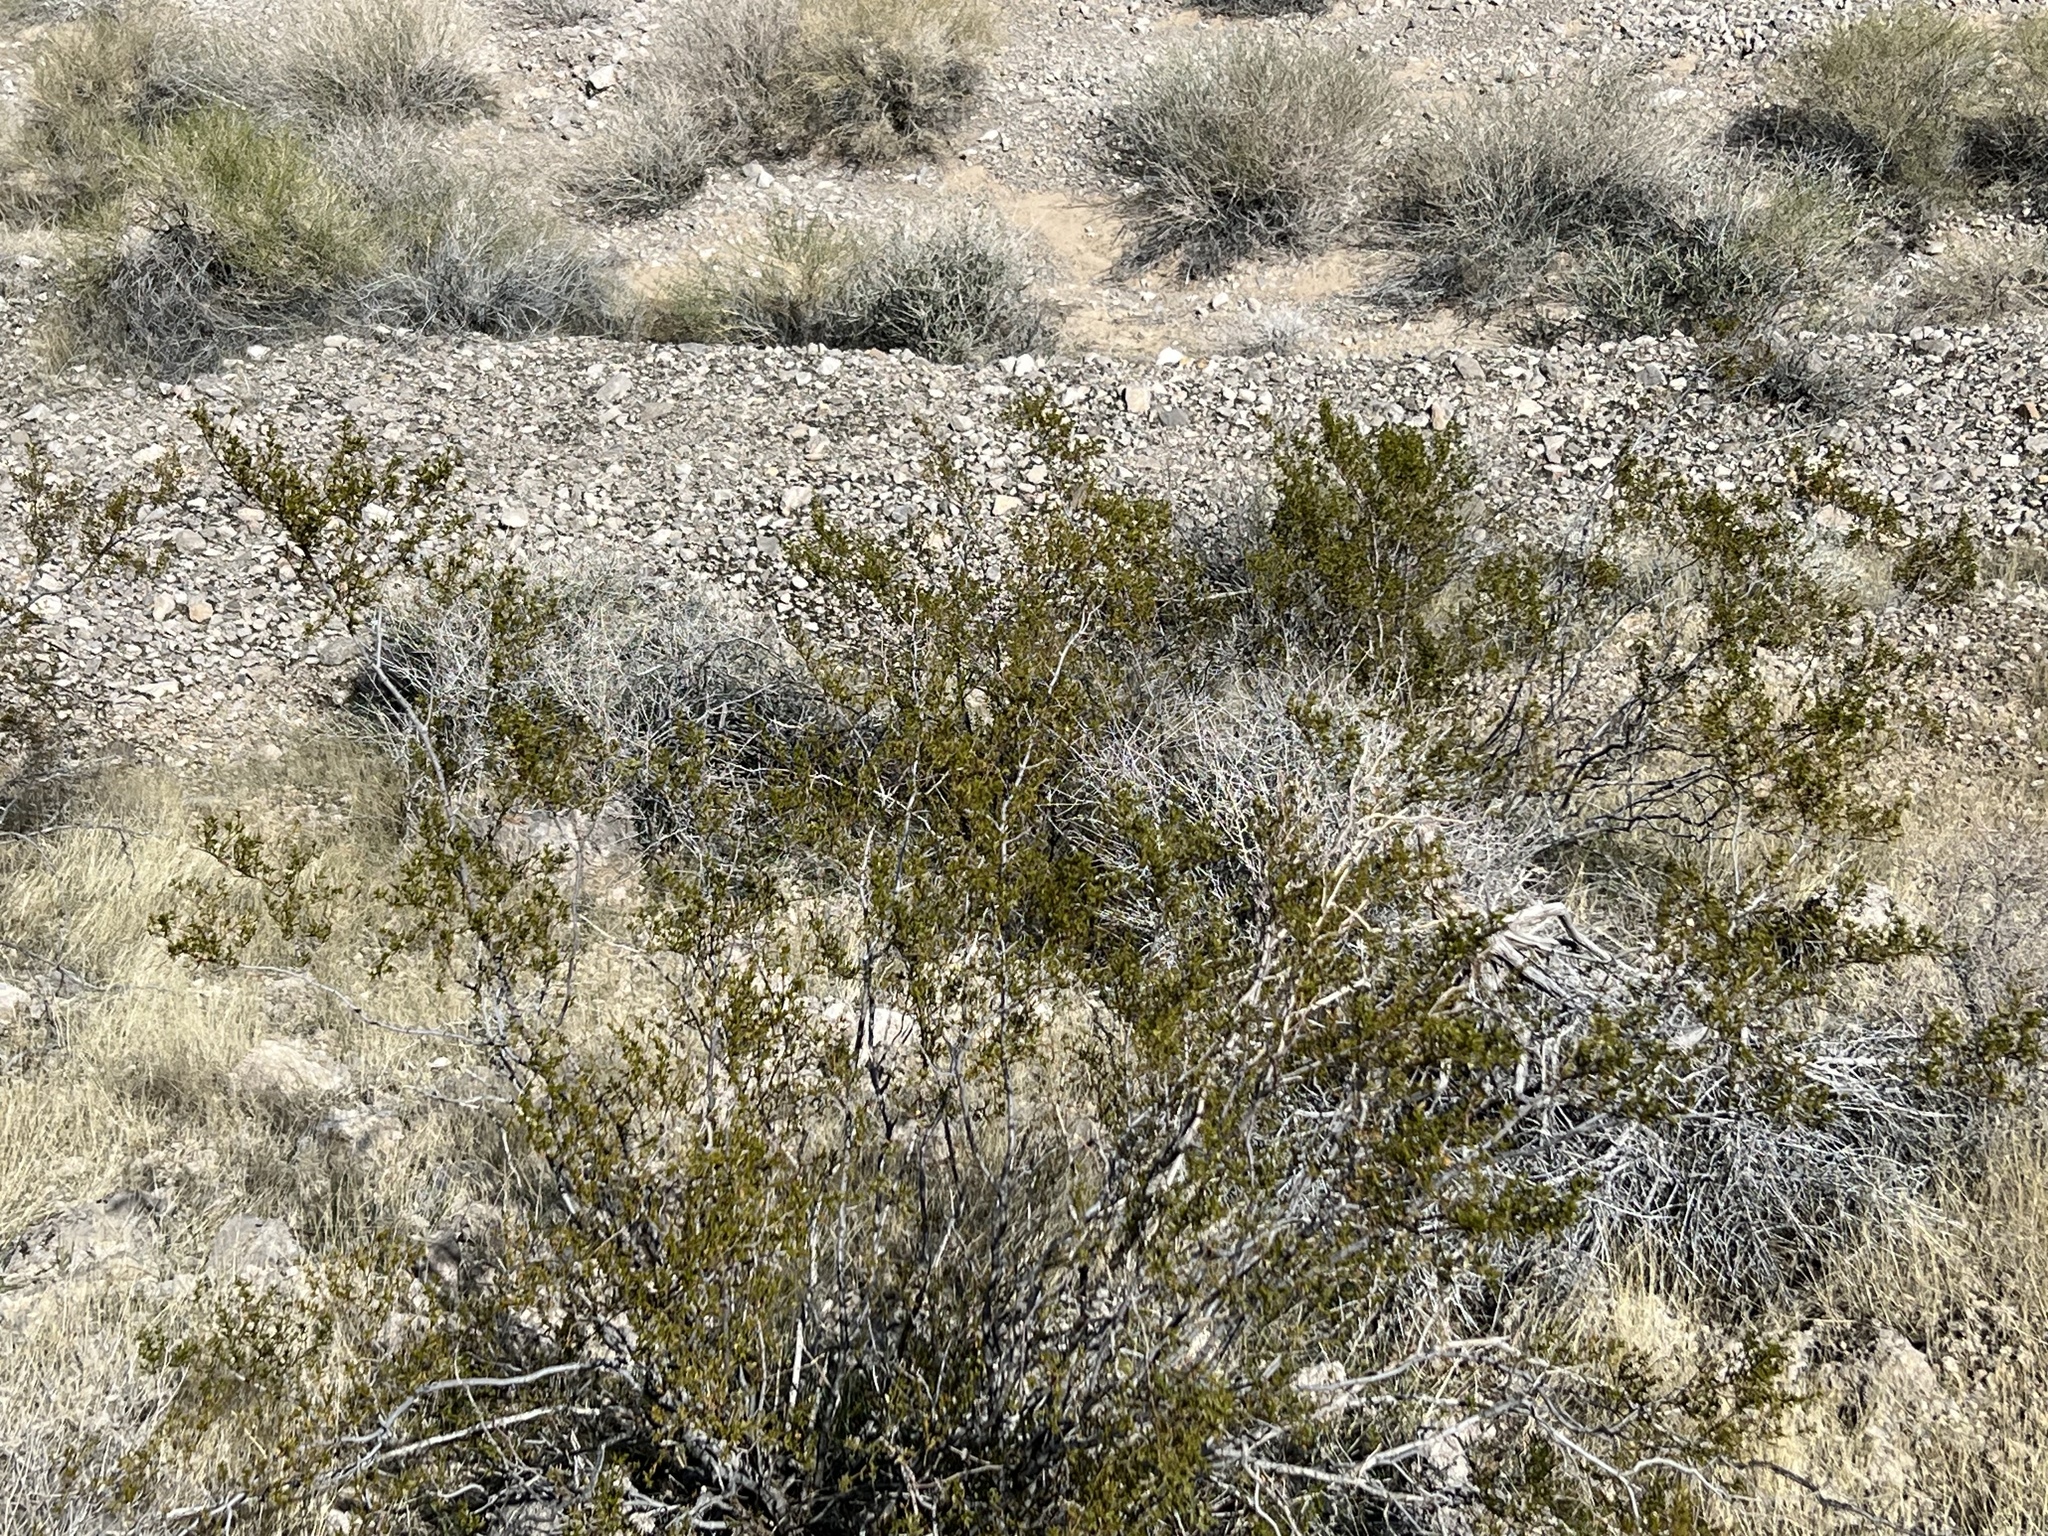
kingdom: Plantae
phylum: Tracheophyta
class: Magnoliopsida
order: Zygophyllales
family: Zygophyllaceae
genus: Larrea
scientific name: Larrea tridentata
